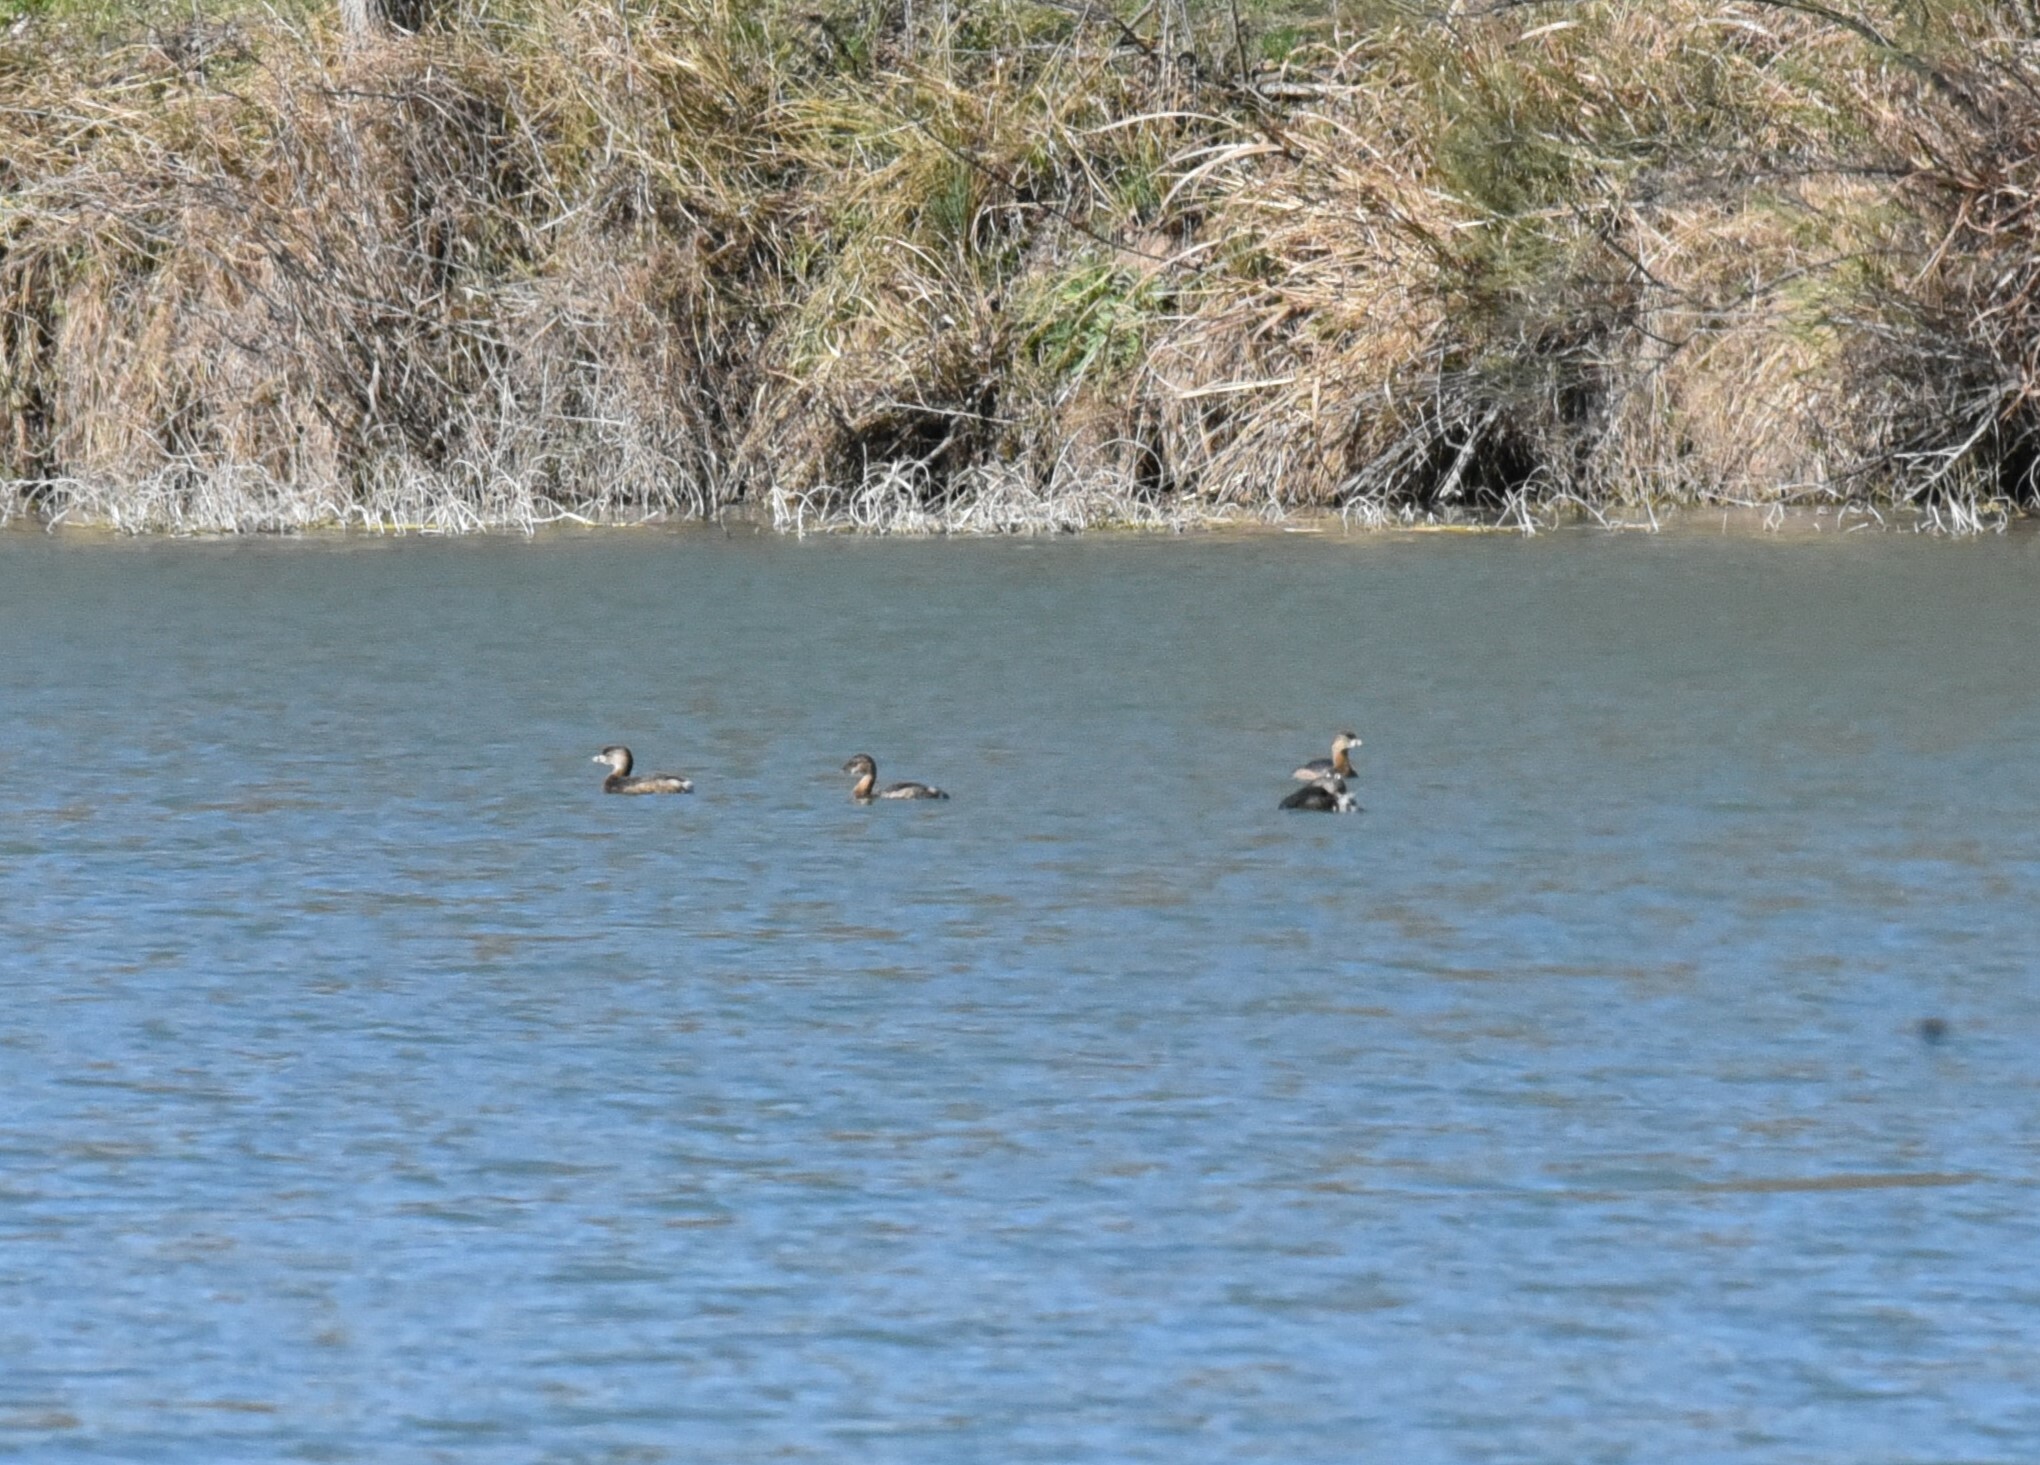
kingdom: Animalia
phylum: Chordata
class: Aves
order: Podicipediformes
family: Podicipedidae
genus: Podilymbus
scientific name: Podilymbus podiceps
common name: Pied-billed grebe
